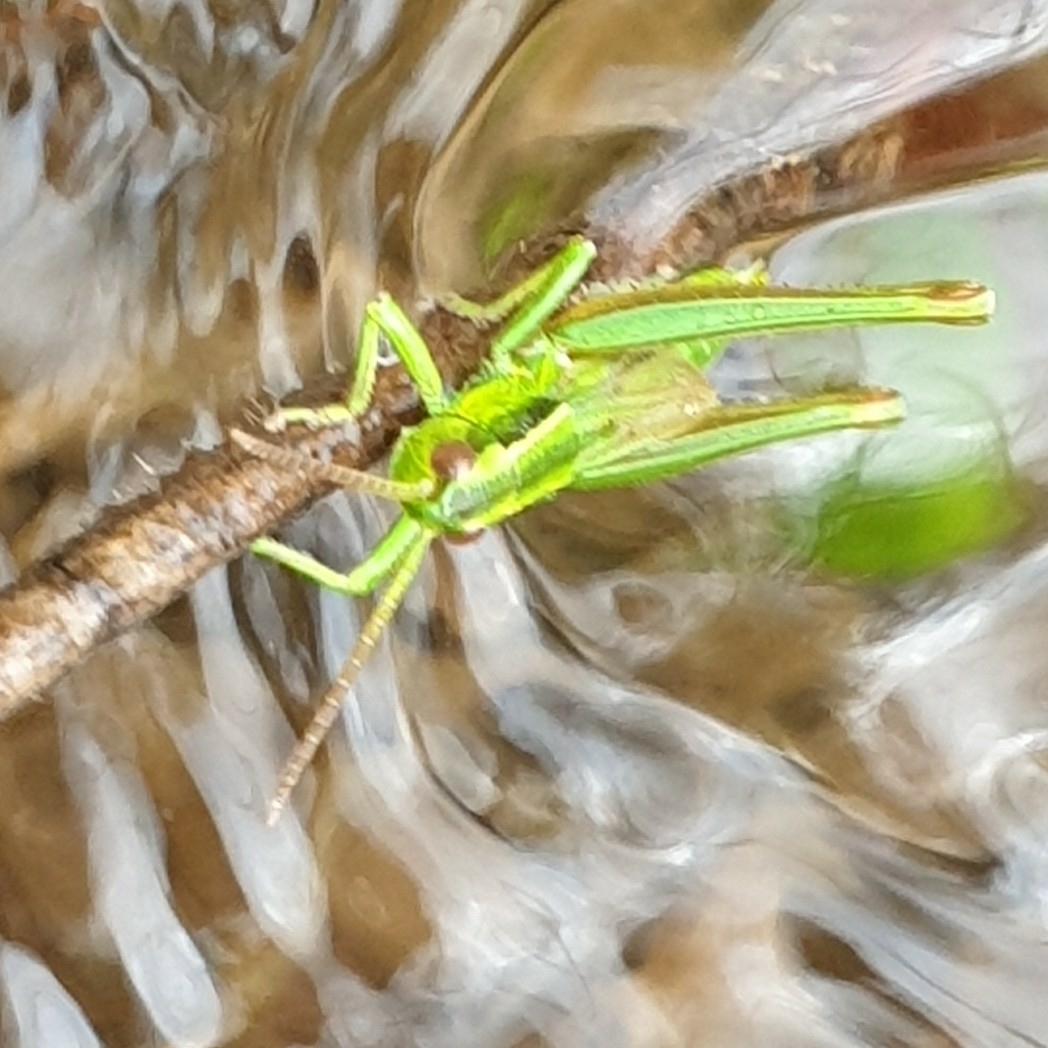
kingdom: Animalia
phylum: Arthropoda
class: Insecta
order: Orthoptera
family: Acrididae
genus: Euthystira
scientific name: Euthystira brachyptera
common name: Small gold grasshopper
